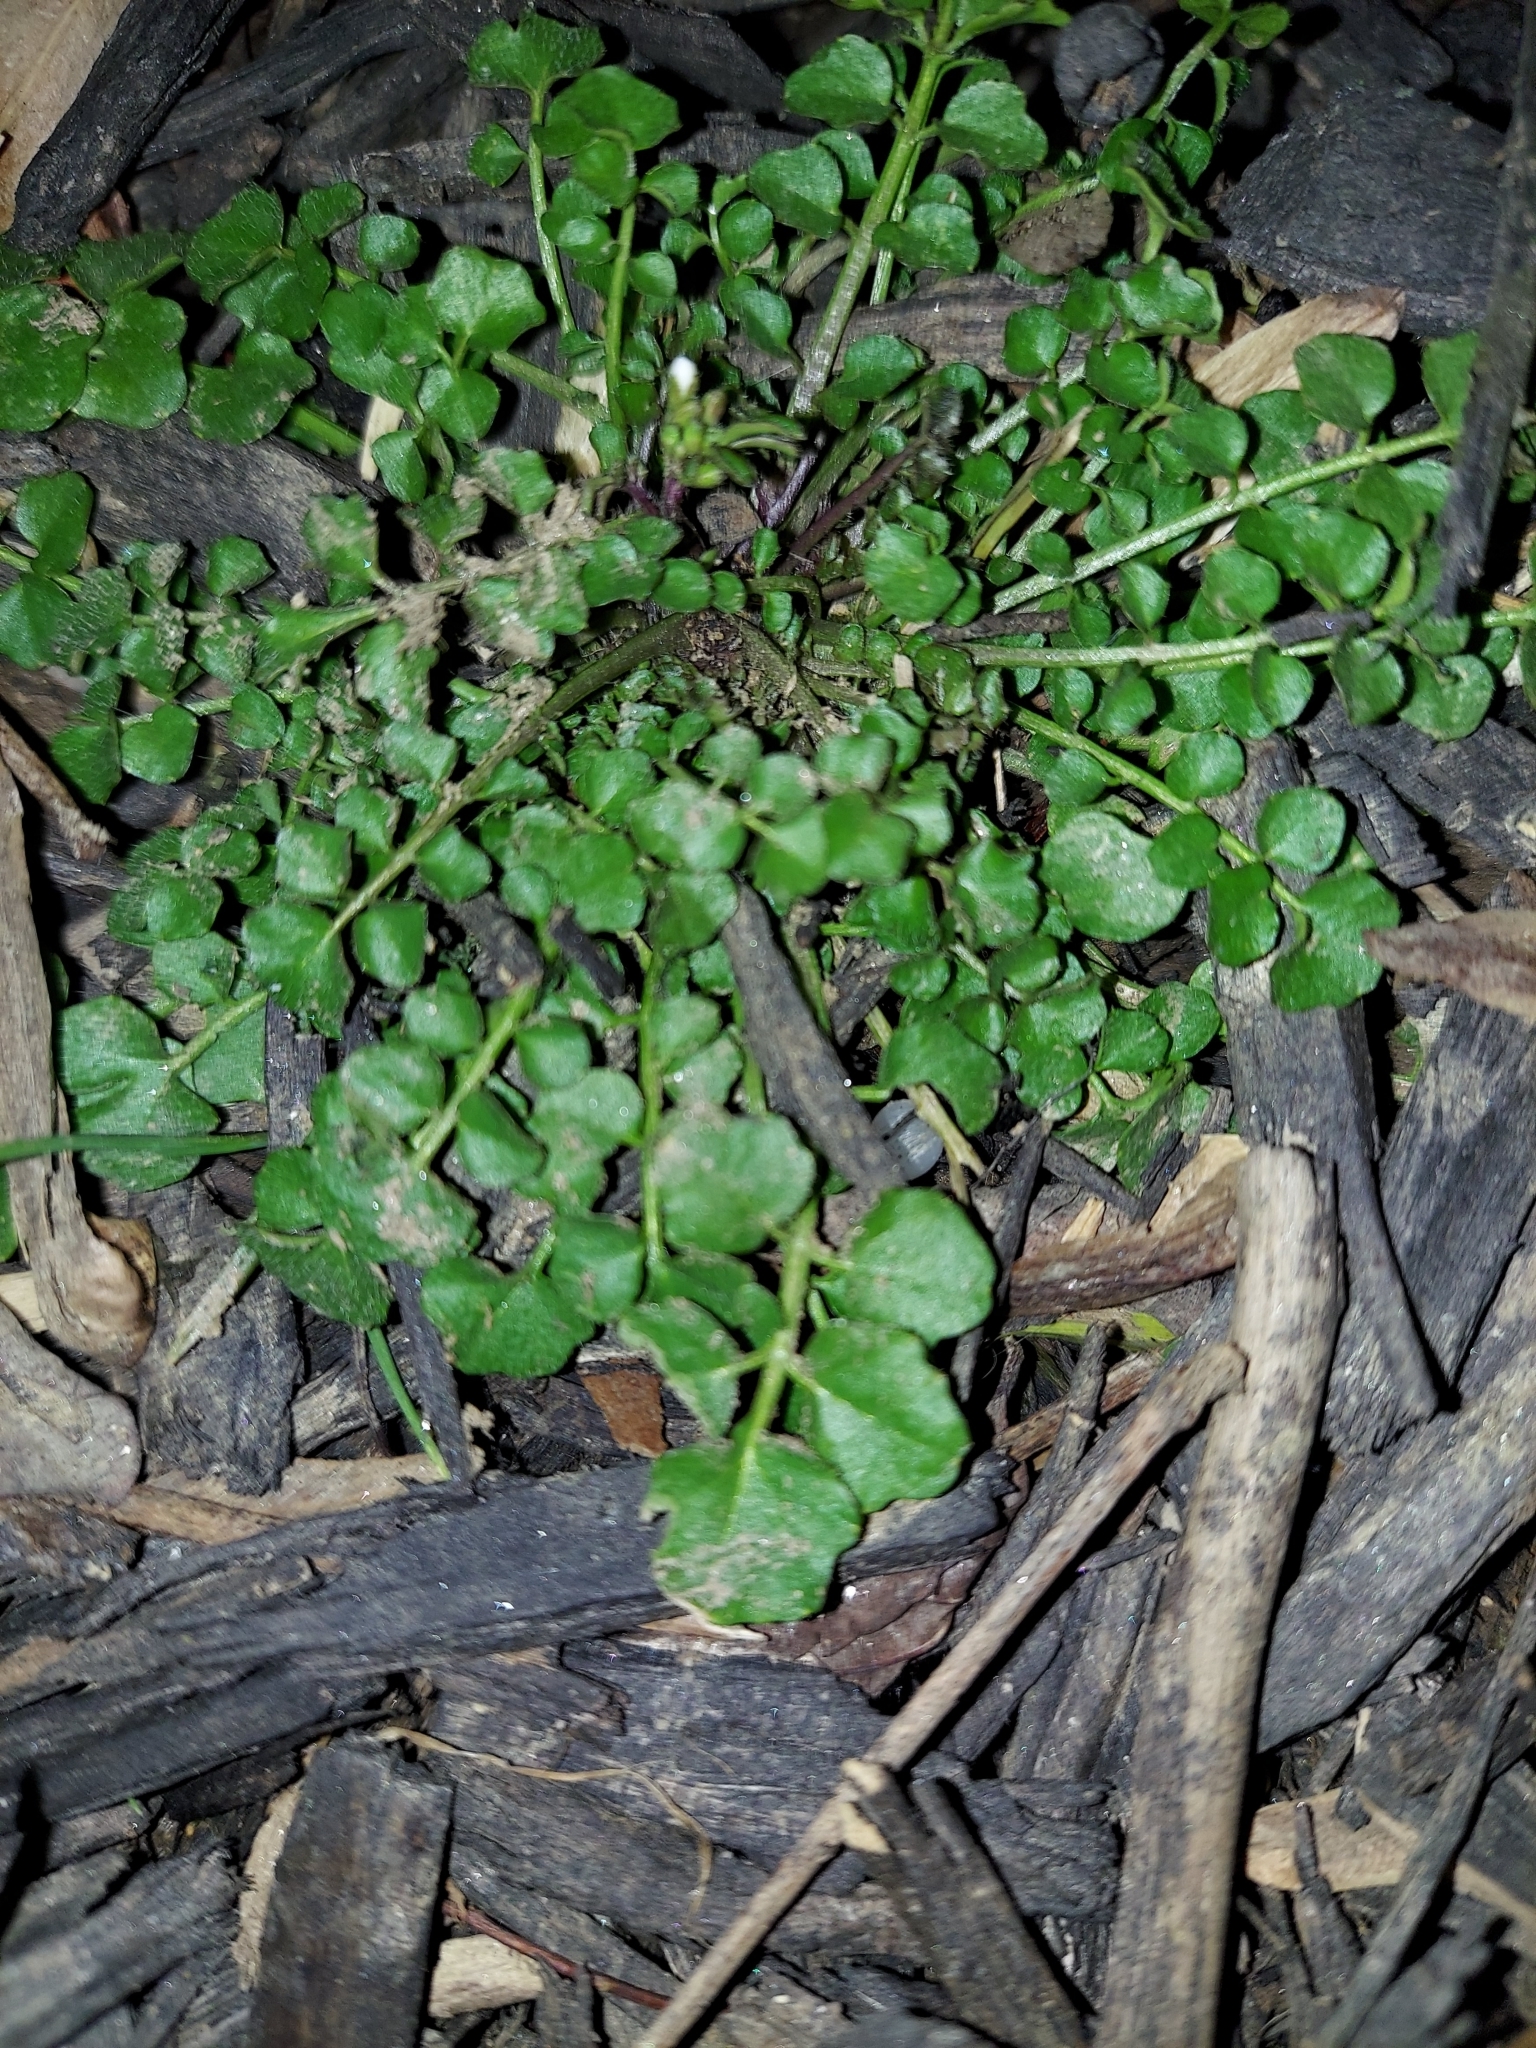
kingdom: Plantae
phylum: Tracheophyta
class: Magnoliopsida
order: Brassicales
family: Brassicaceae
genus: Cardamine
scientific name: Cardamine hirsuta
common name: Hairy bittercress
